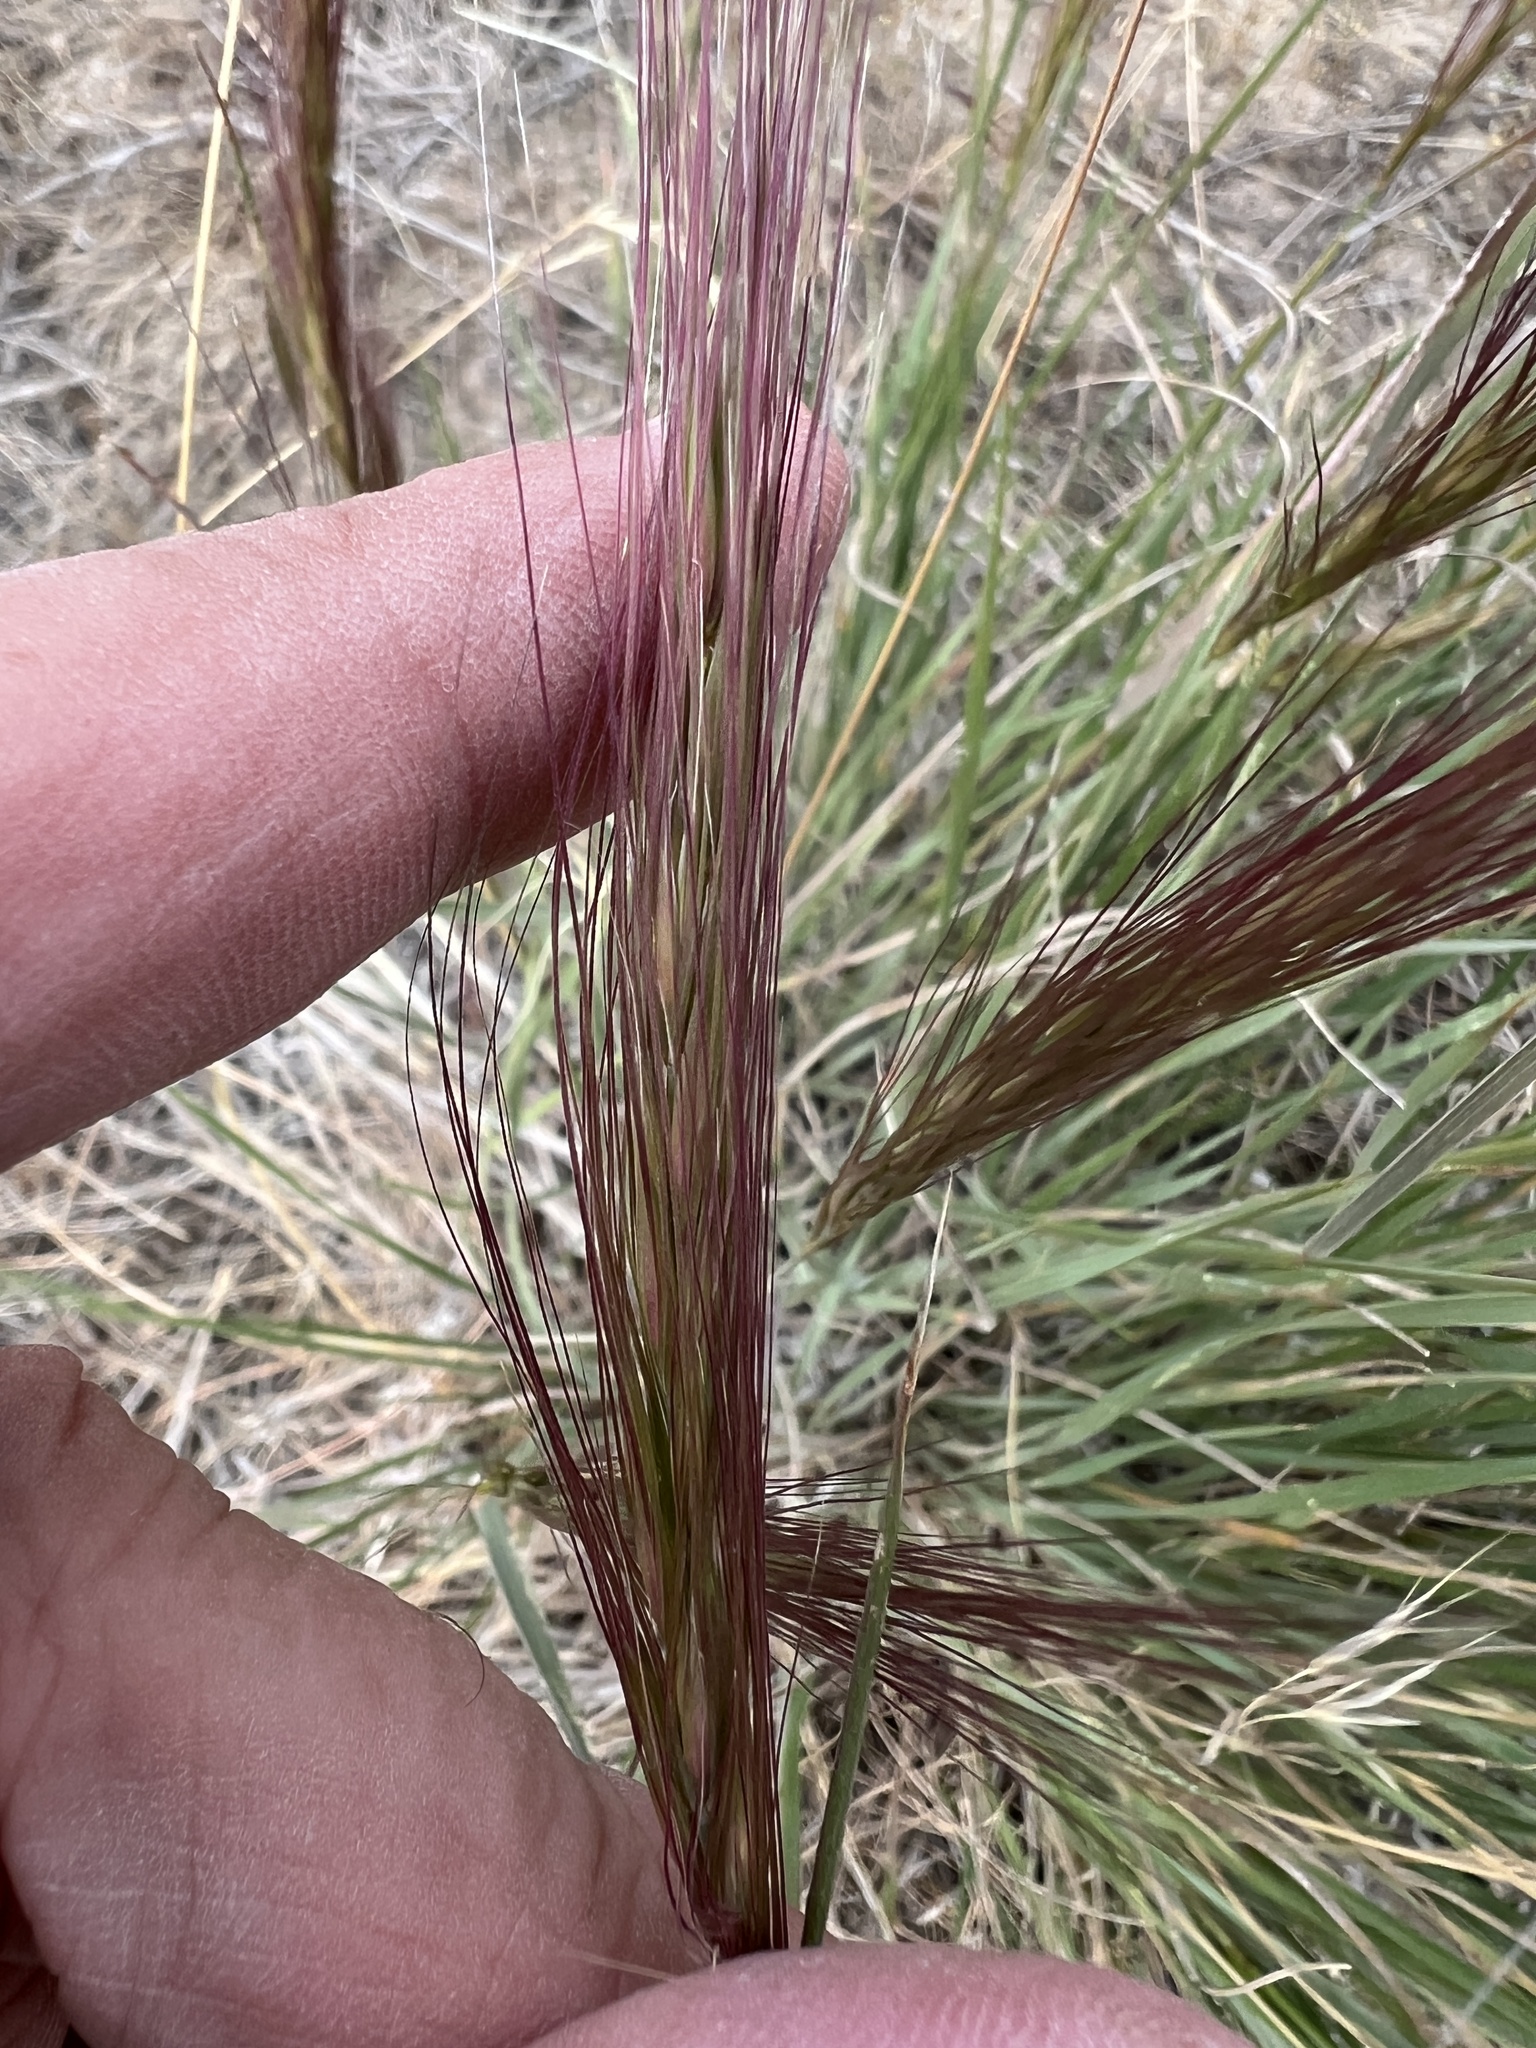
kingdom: Plantae
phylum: Tracheophyta
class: Liliopsida
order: Poales
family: Poaceae
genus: Elymus
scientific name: Elymus elymoides
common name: Bottlebrush squirreltail
